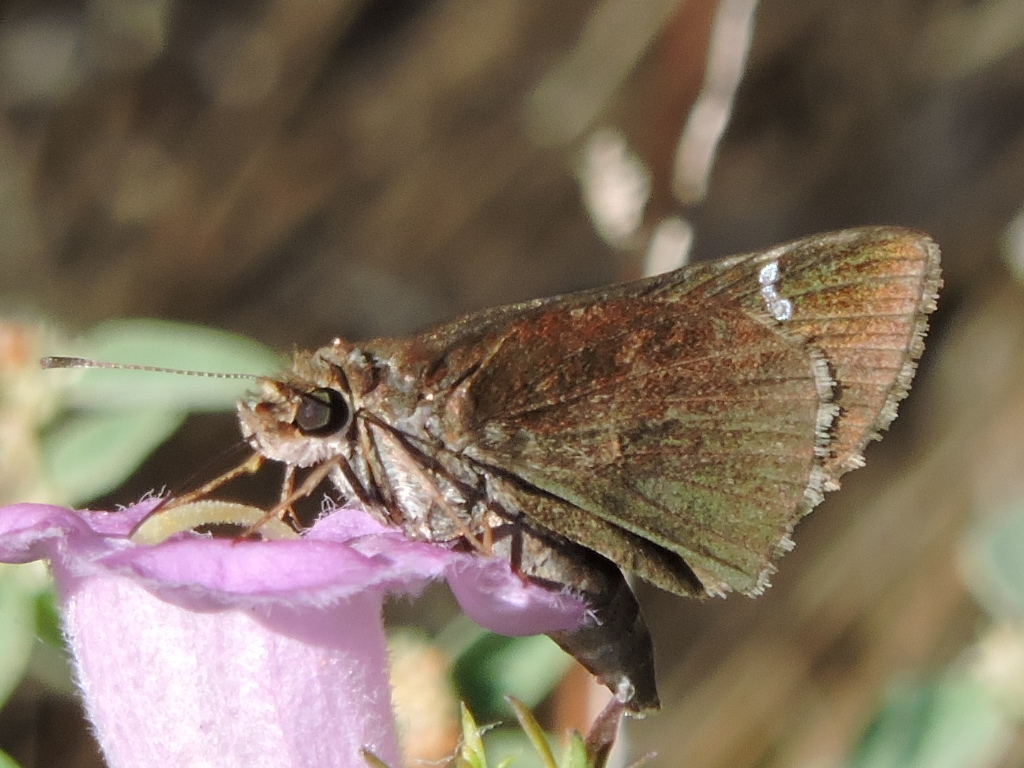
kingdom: Animalia
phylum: Arthropoda
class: Insecta
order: Lepidoptera
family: Hesperiidae
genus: Lerema
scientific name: Lerema accius
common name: Clouded skipper
